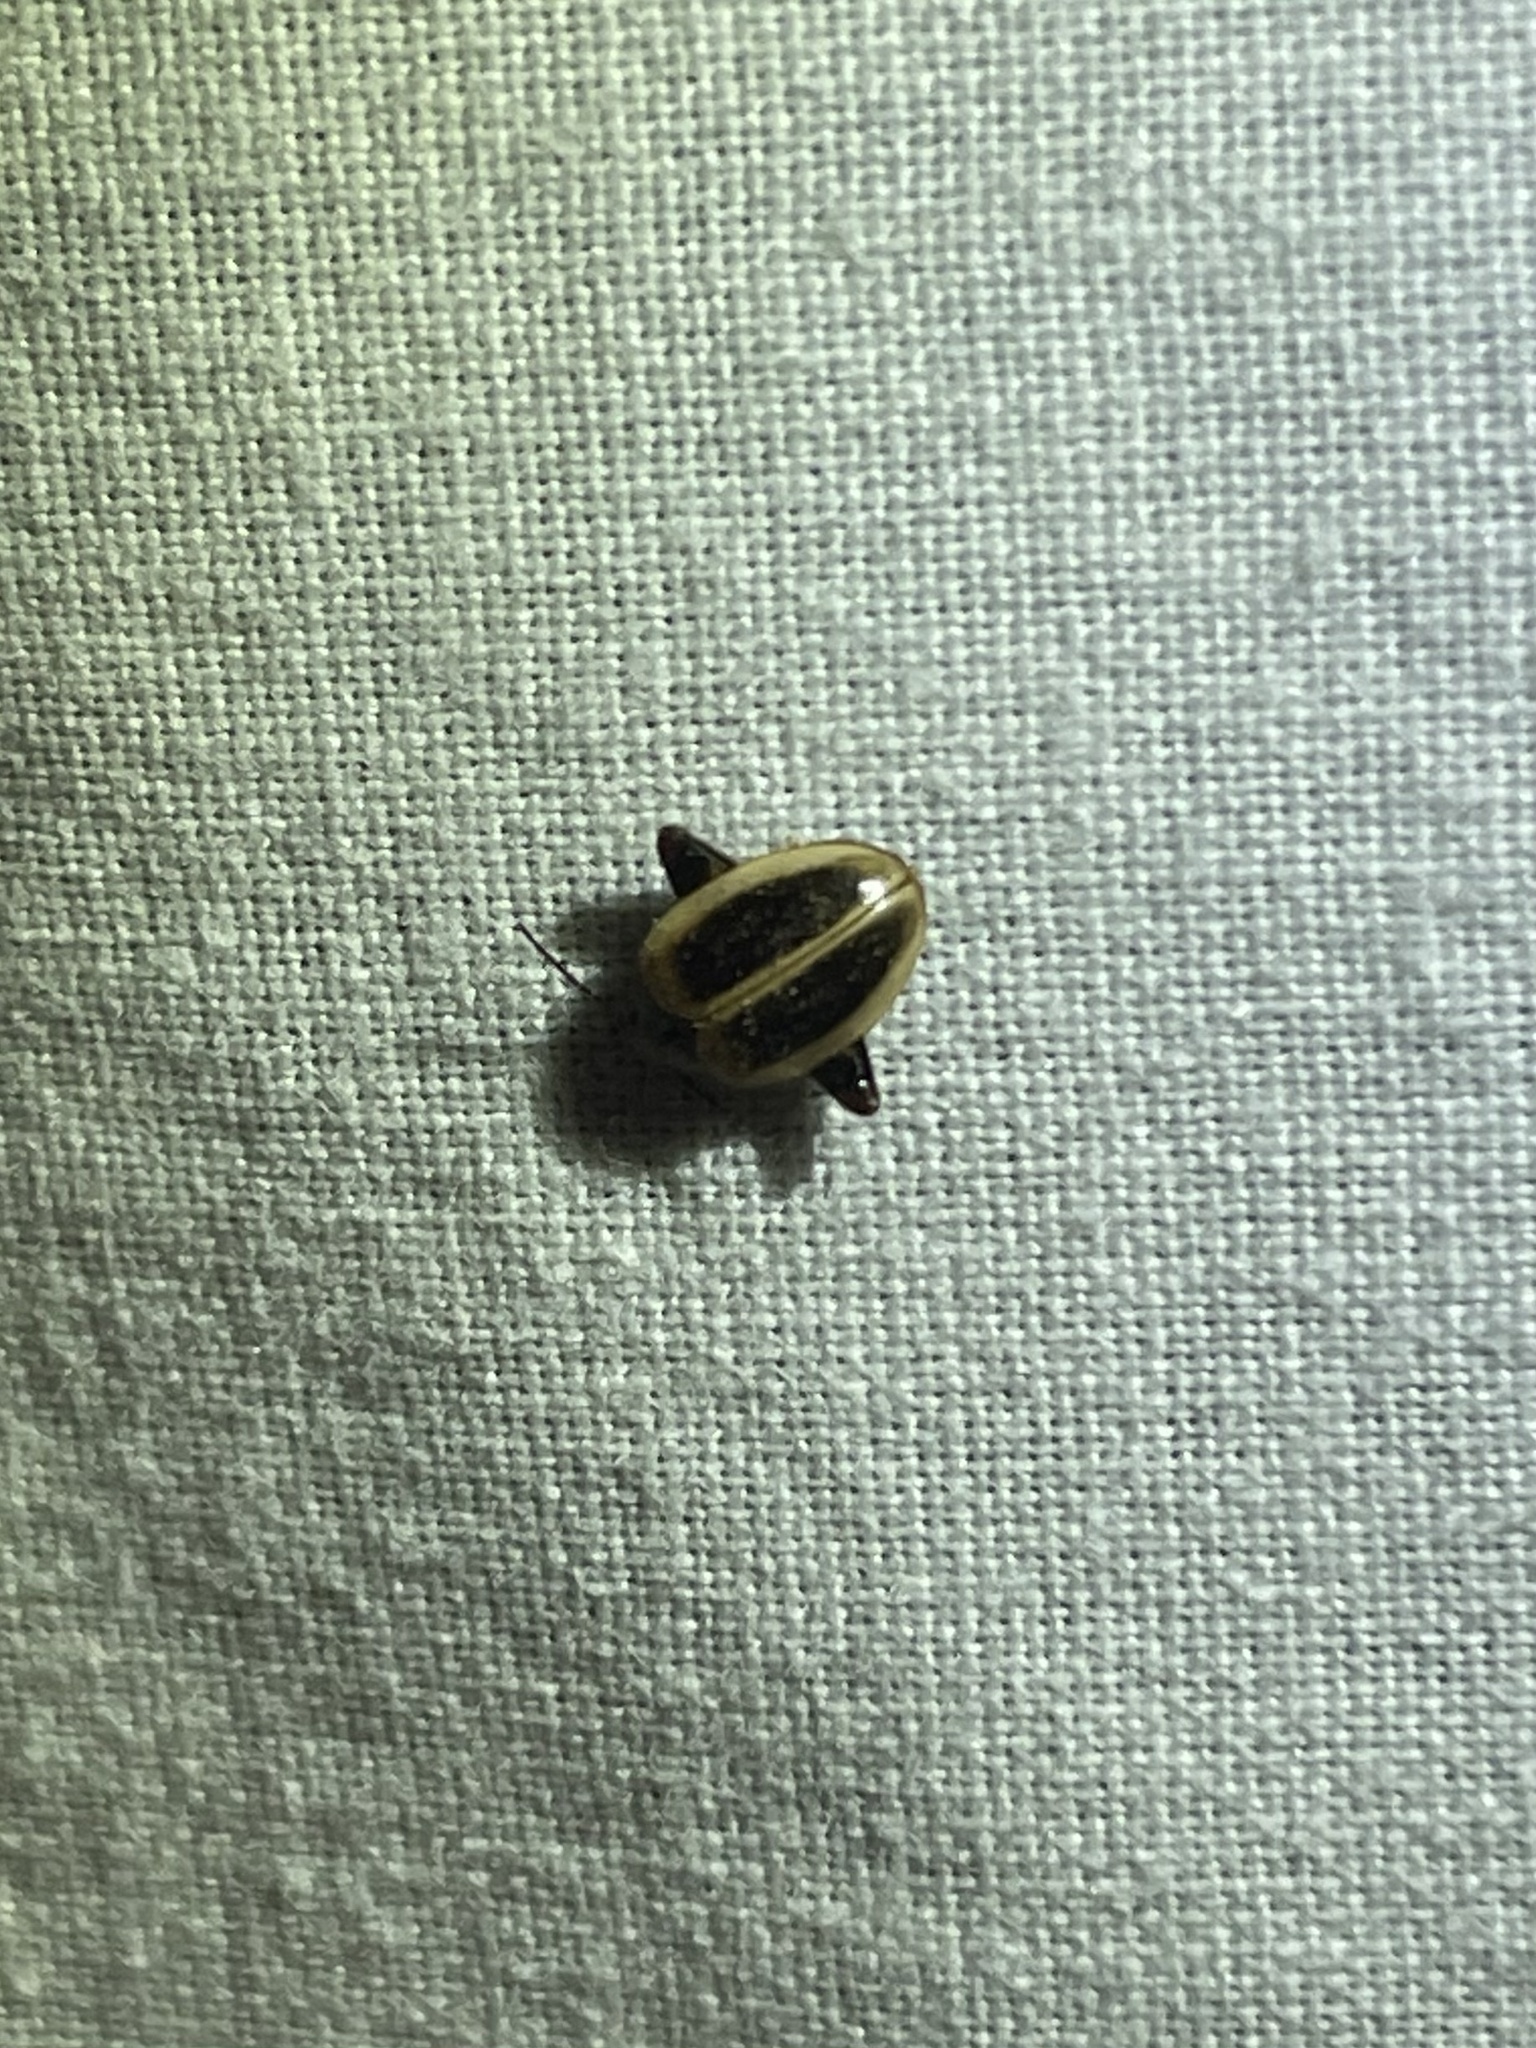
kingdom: Animalia
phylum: Arthropoda
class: Insecta
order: Coleoptera
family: Scirtidae
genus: Ora
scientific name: Ora discoidea
